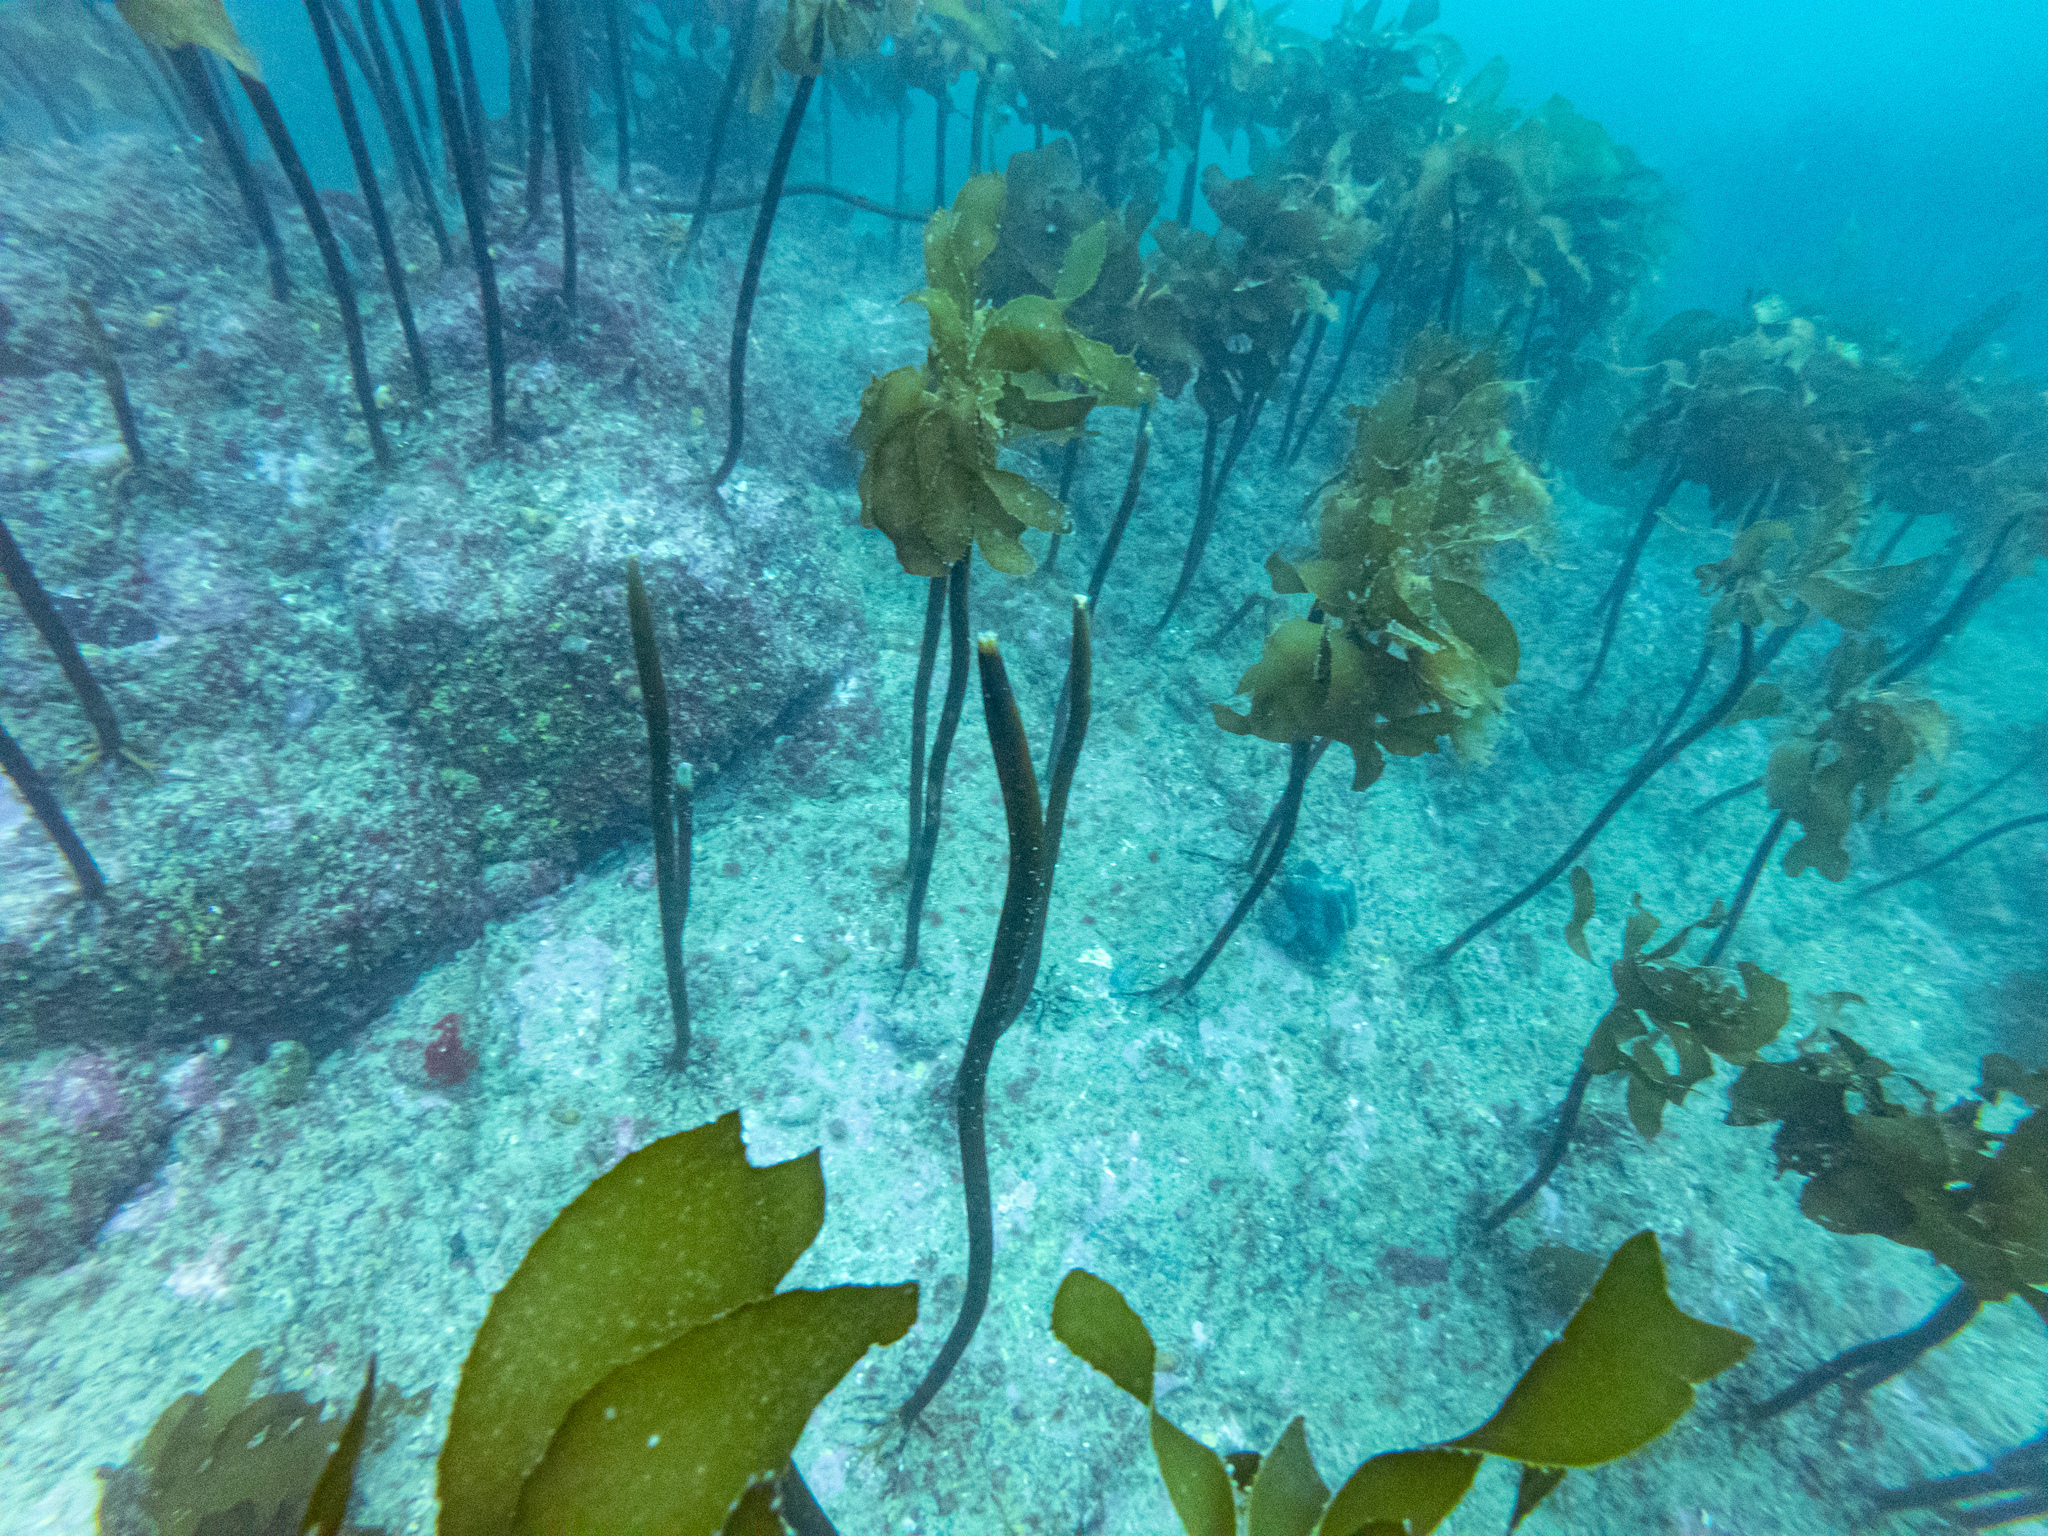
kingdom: Chromista
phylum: Ochrophyta
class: Phaeophyceae
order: Laminariales
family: Lessoniaceae
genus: Ecklonia
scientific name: Ecklonia radiata
